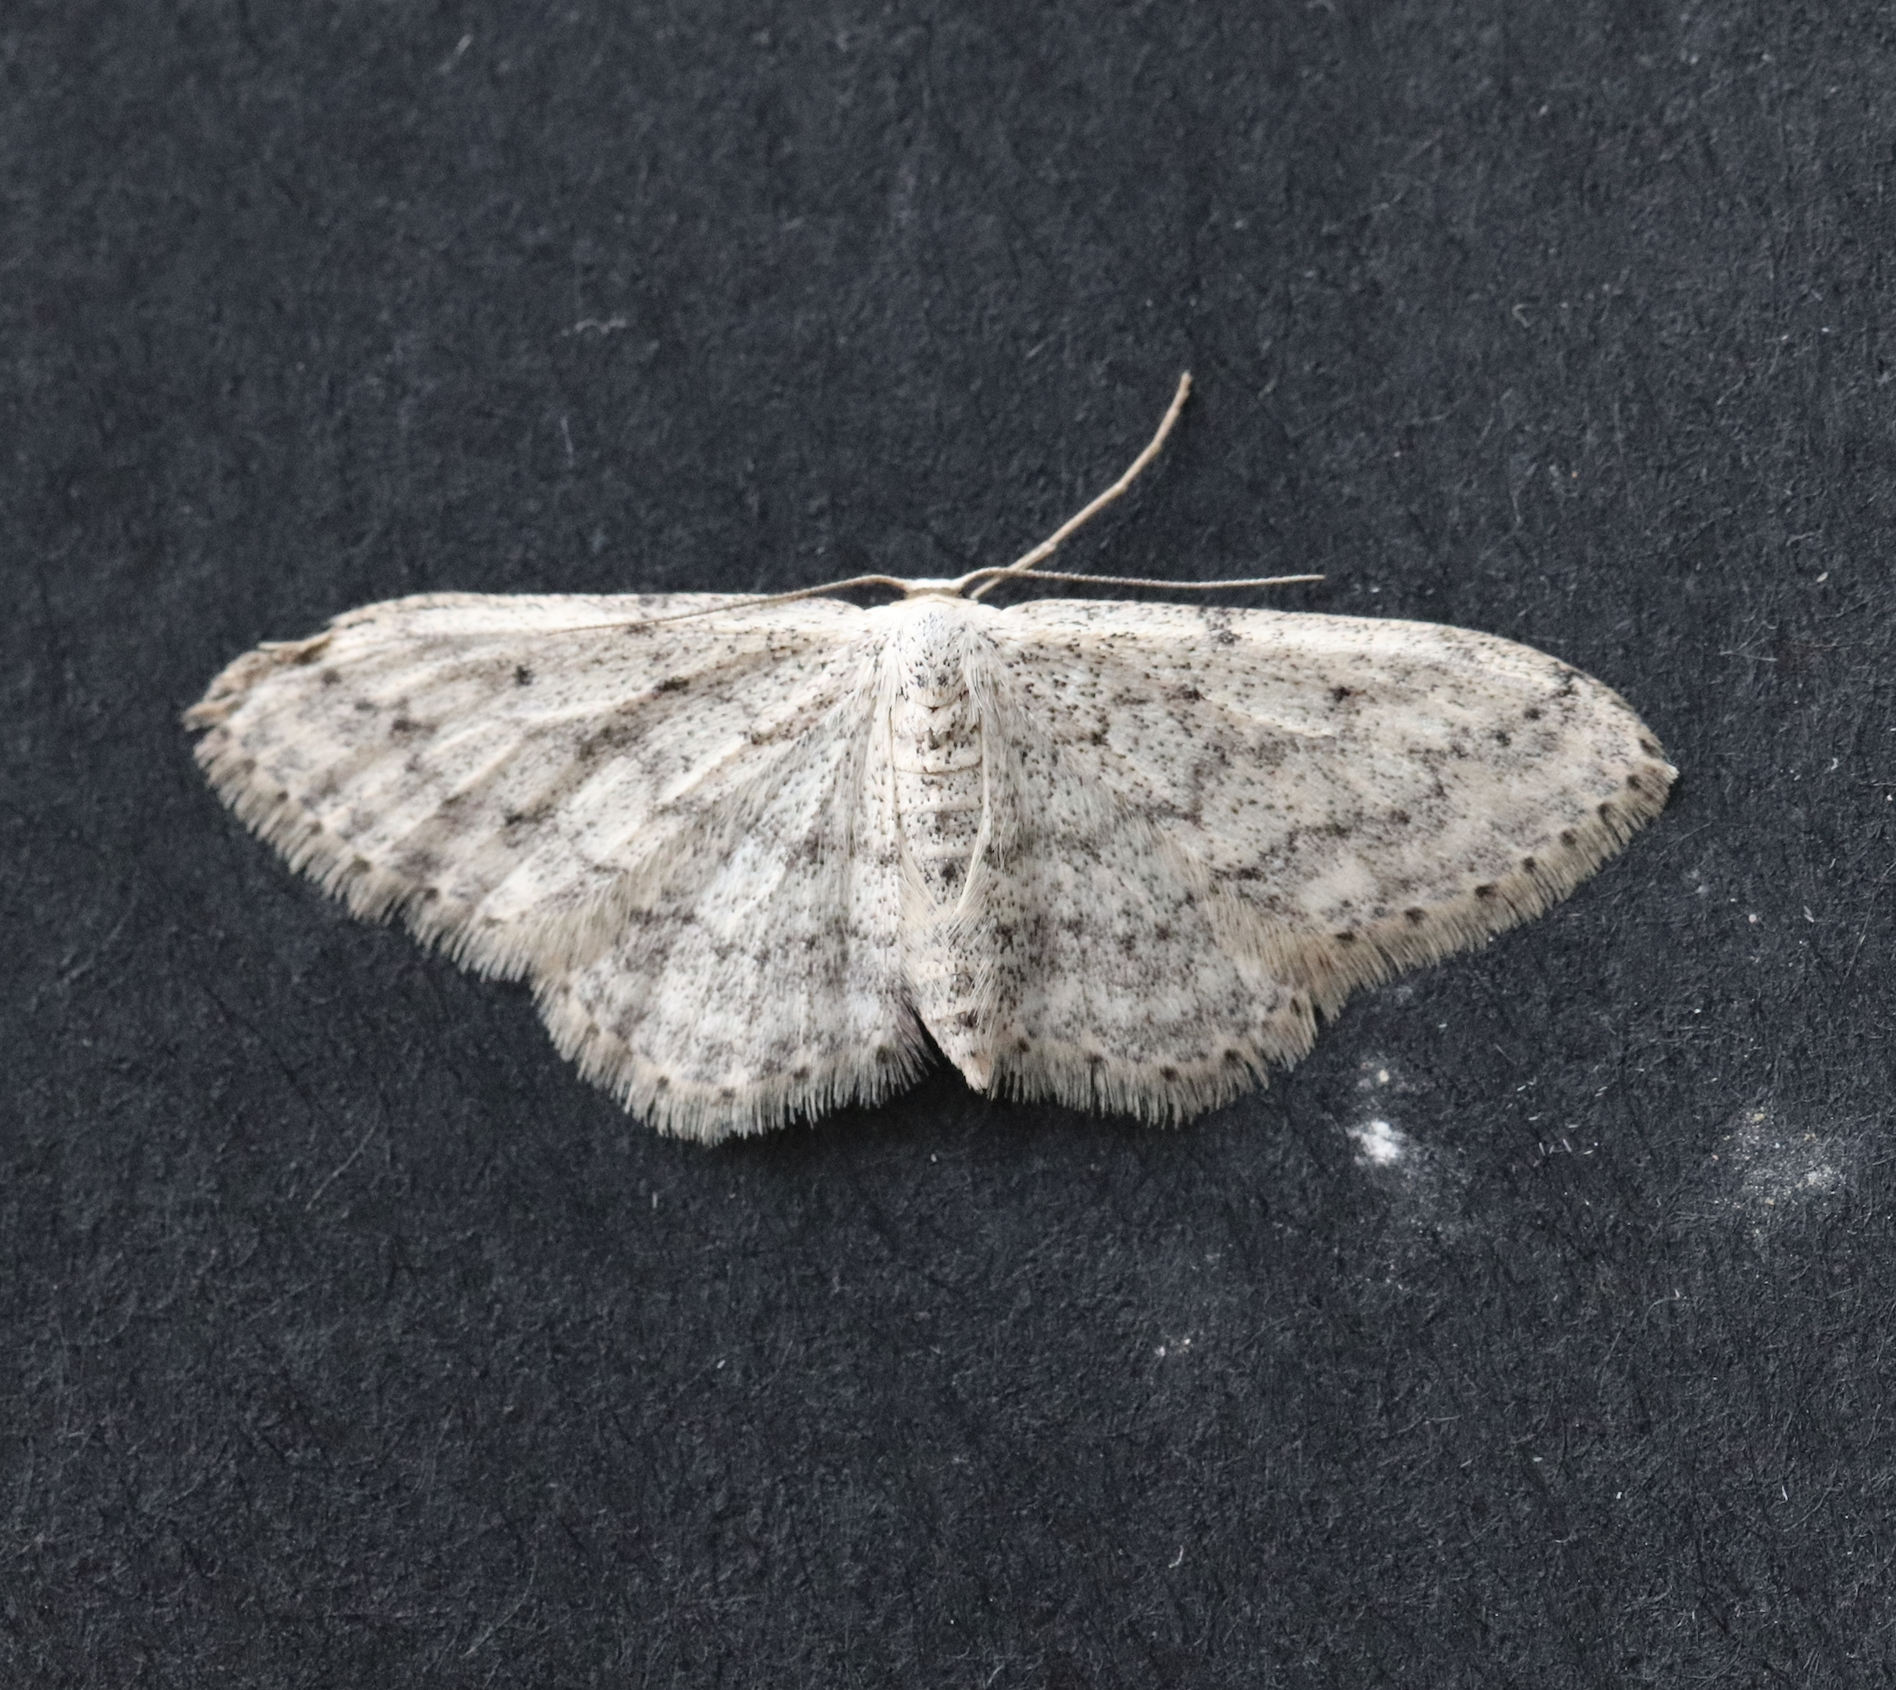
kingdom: Animalia
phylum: Arthropoda
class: Insecta
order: Lepidoptera
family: Geometridae
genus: Idaea
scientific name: Idaea seriata
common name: Small dusty wave
